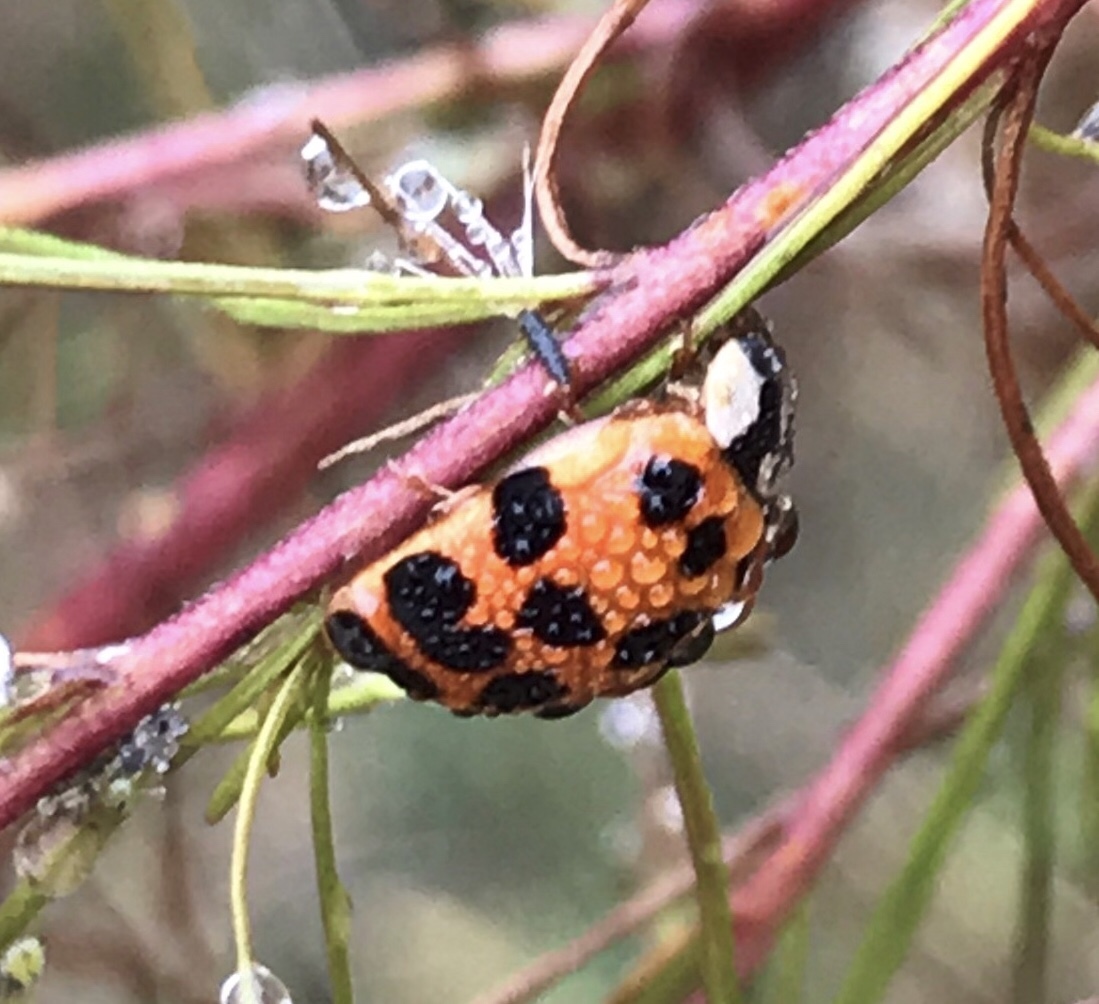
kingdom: Animalia
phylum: Arthropoda
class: Insecta
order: Coleoptera
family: Coccinellidae
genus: Harmonia
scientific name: Harmonia axyridis
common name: Harlequin ladybird
